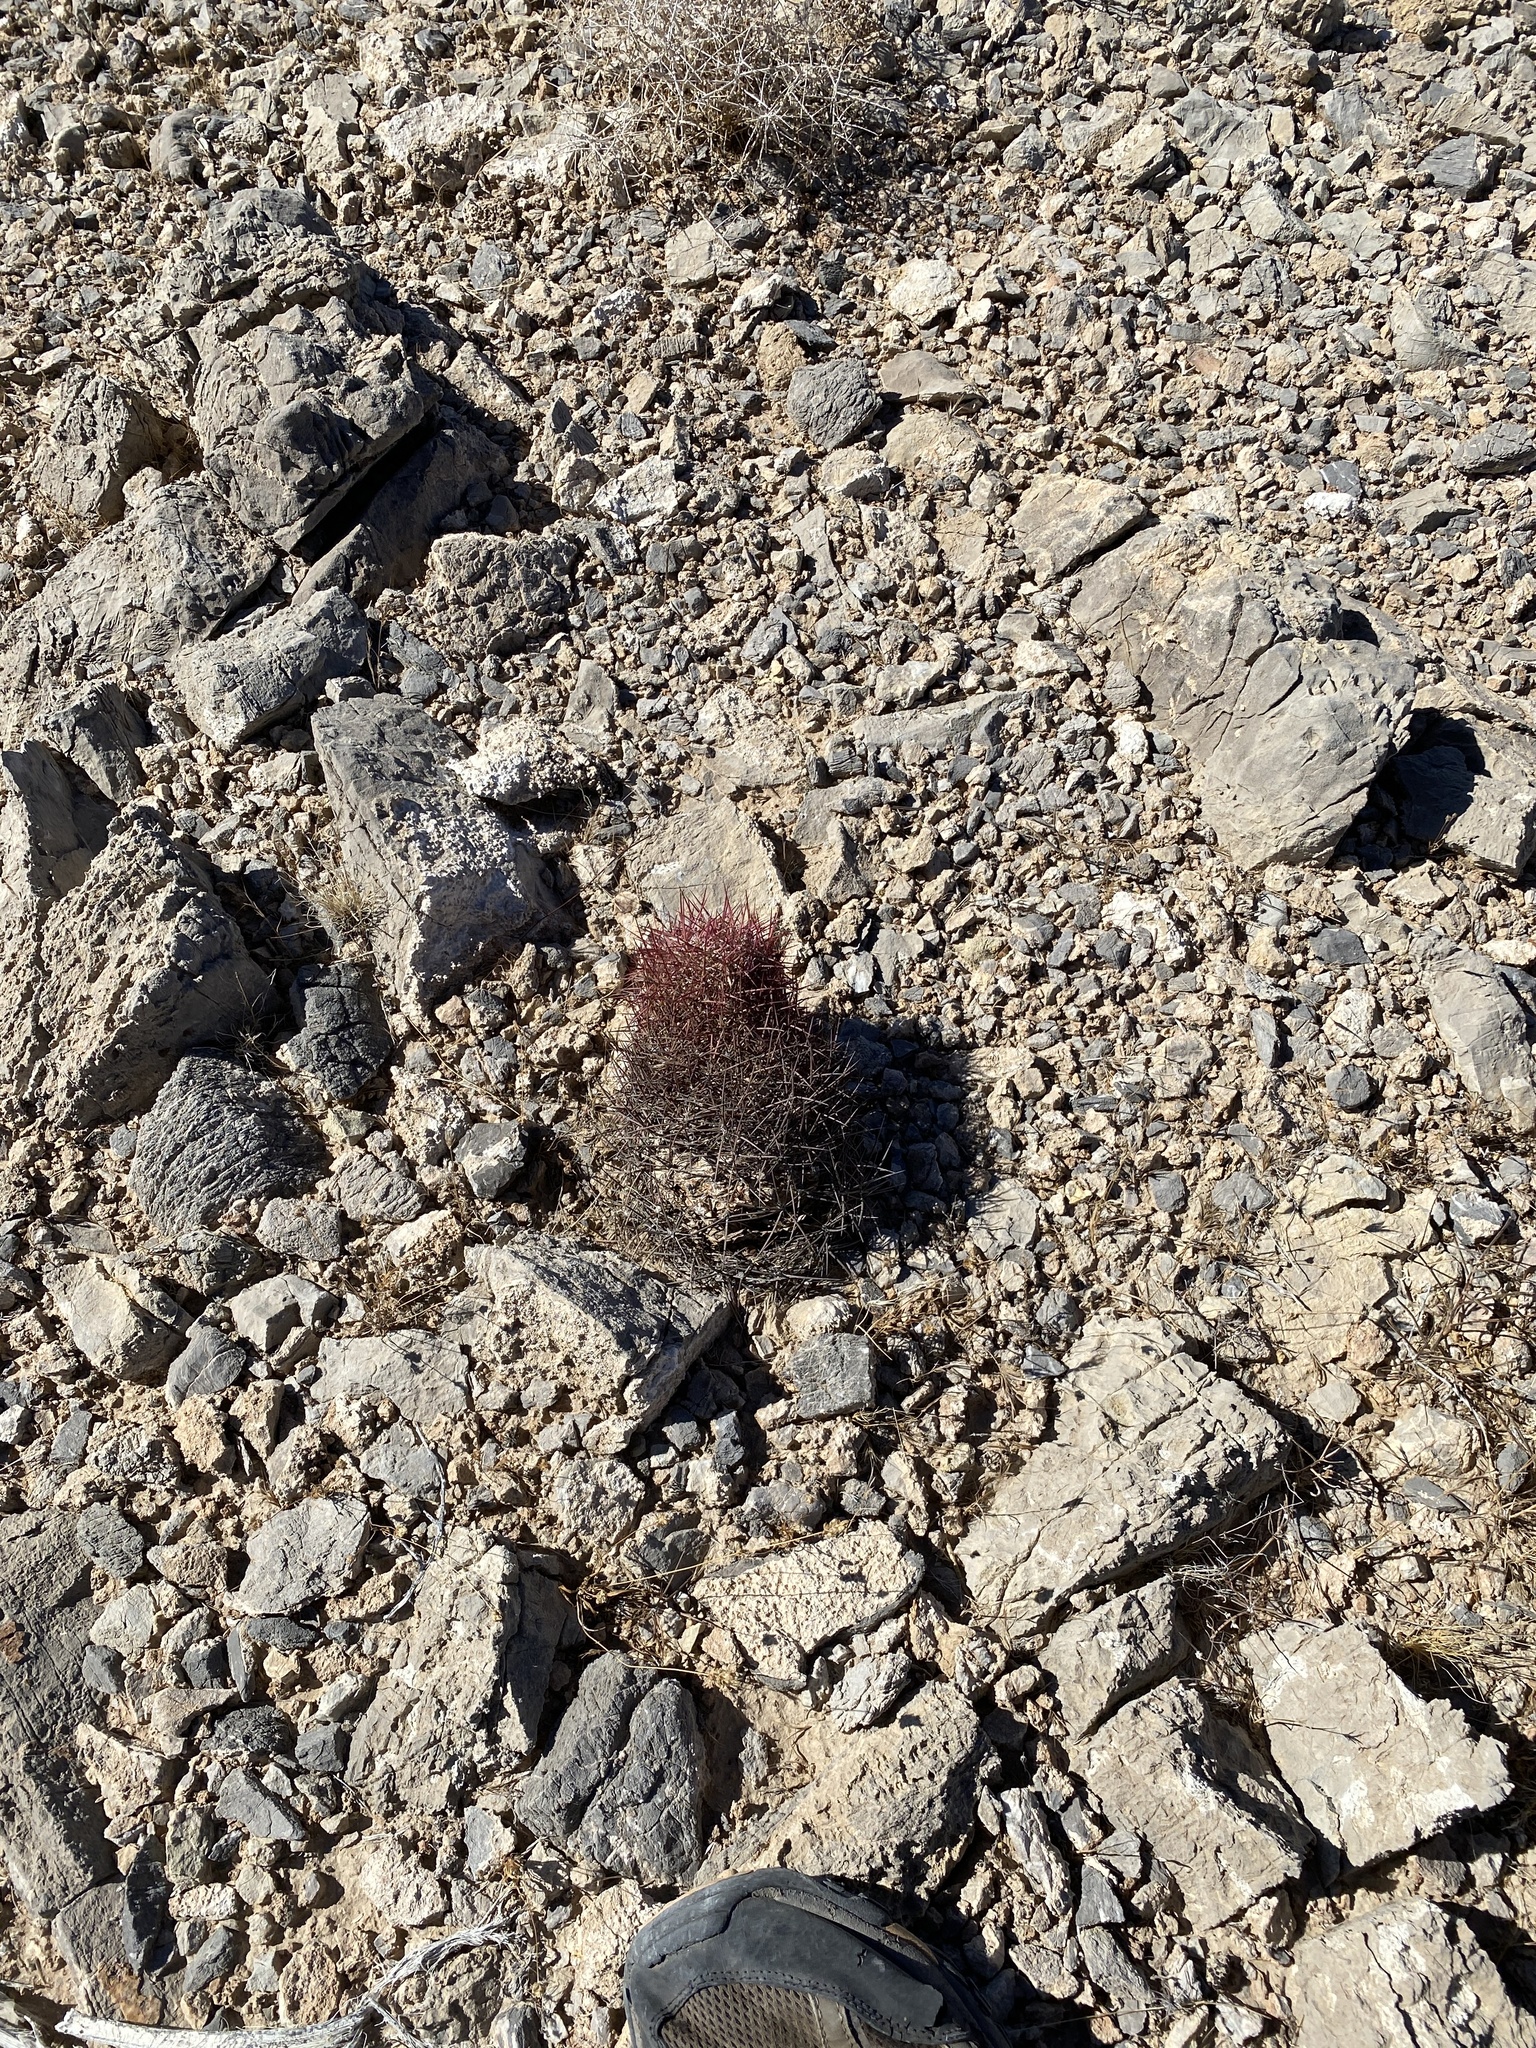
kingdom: Plantae
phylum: Tracheophyta
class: Magnoliopsida
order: Caryophyllales
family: Cactaceae
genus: Sclerocactus
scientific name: Sclerocactus johnsonii
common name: Eight-spine fishhook cactus
